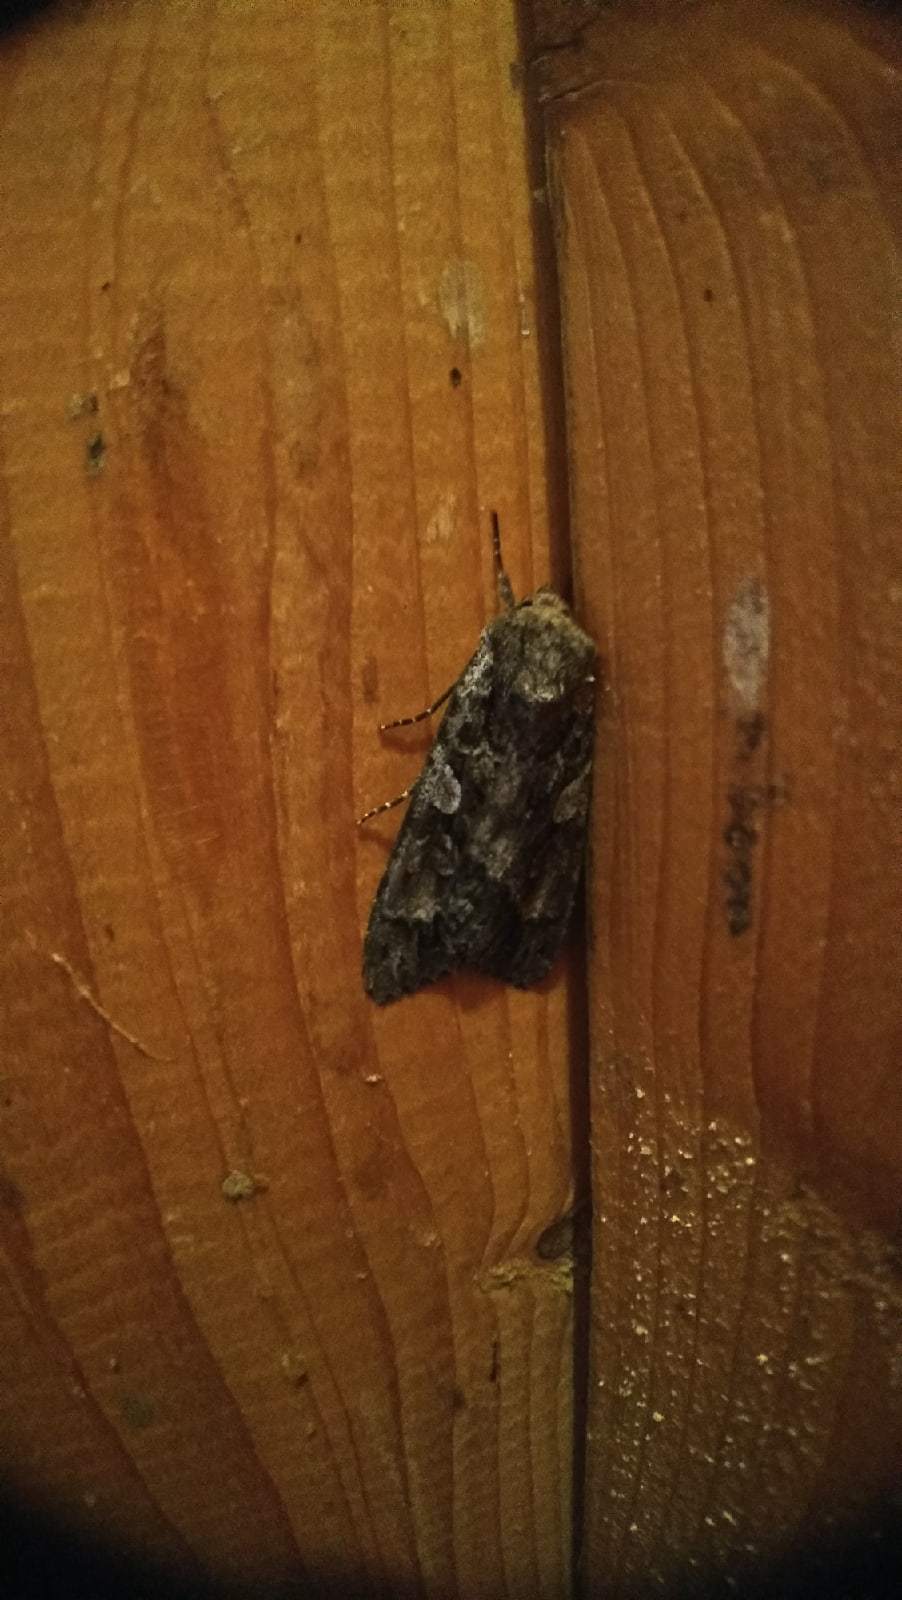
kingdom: Animalia
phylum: Arthropoda
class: Insecta
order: Lepidoptera
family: Noctuidae
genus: Eurois
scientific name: Eurois occulta
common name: Great brocade
